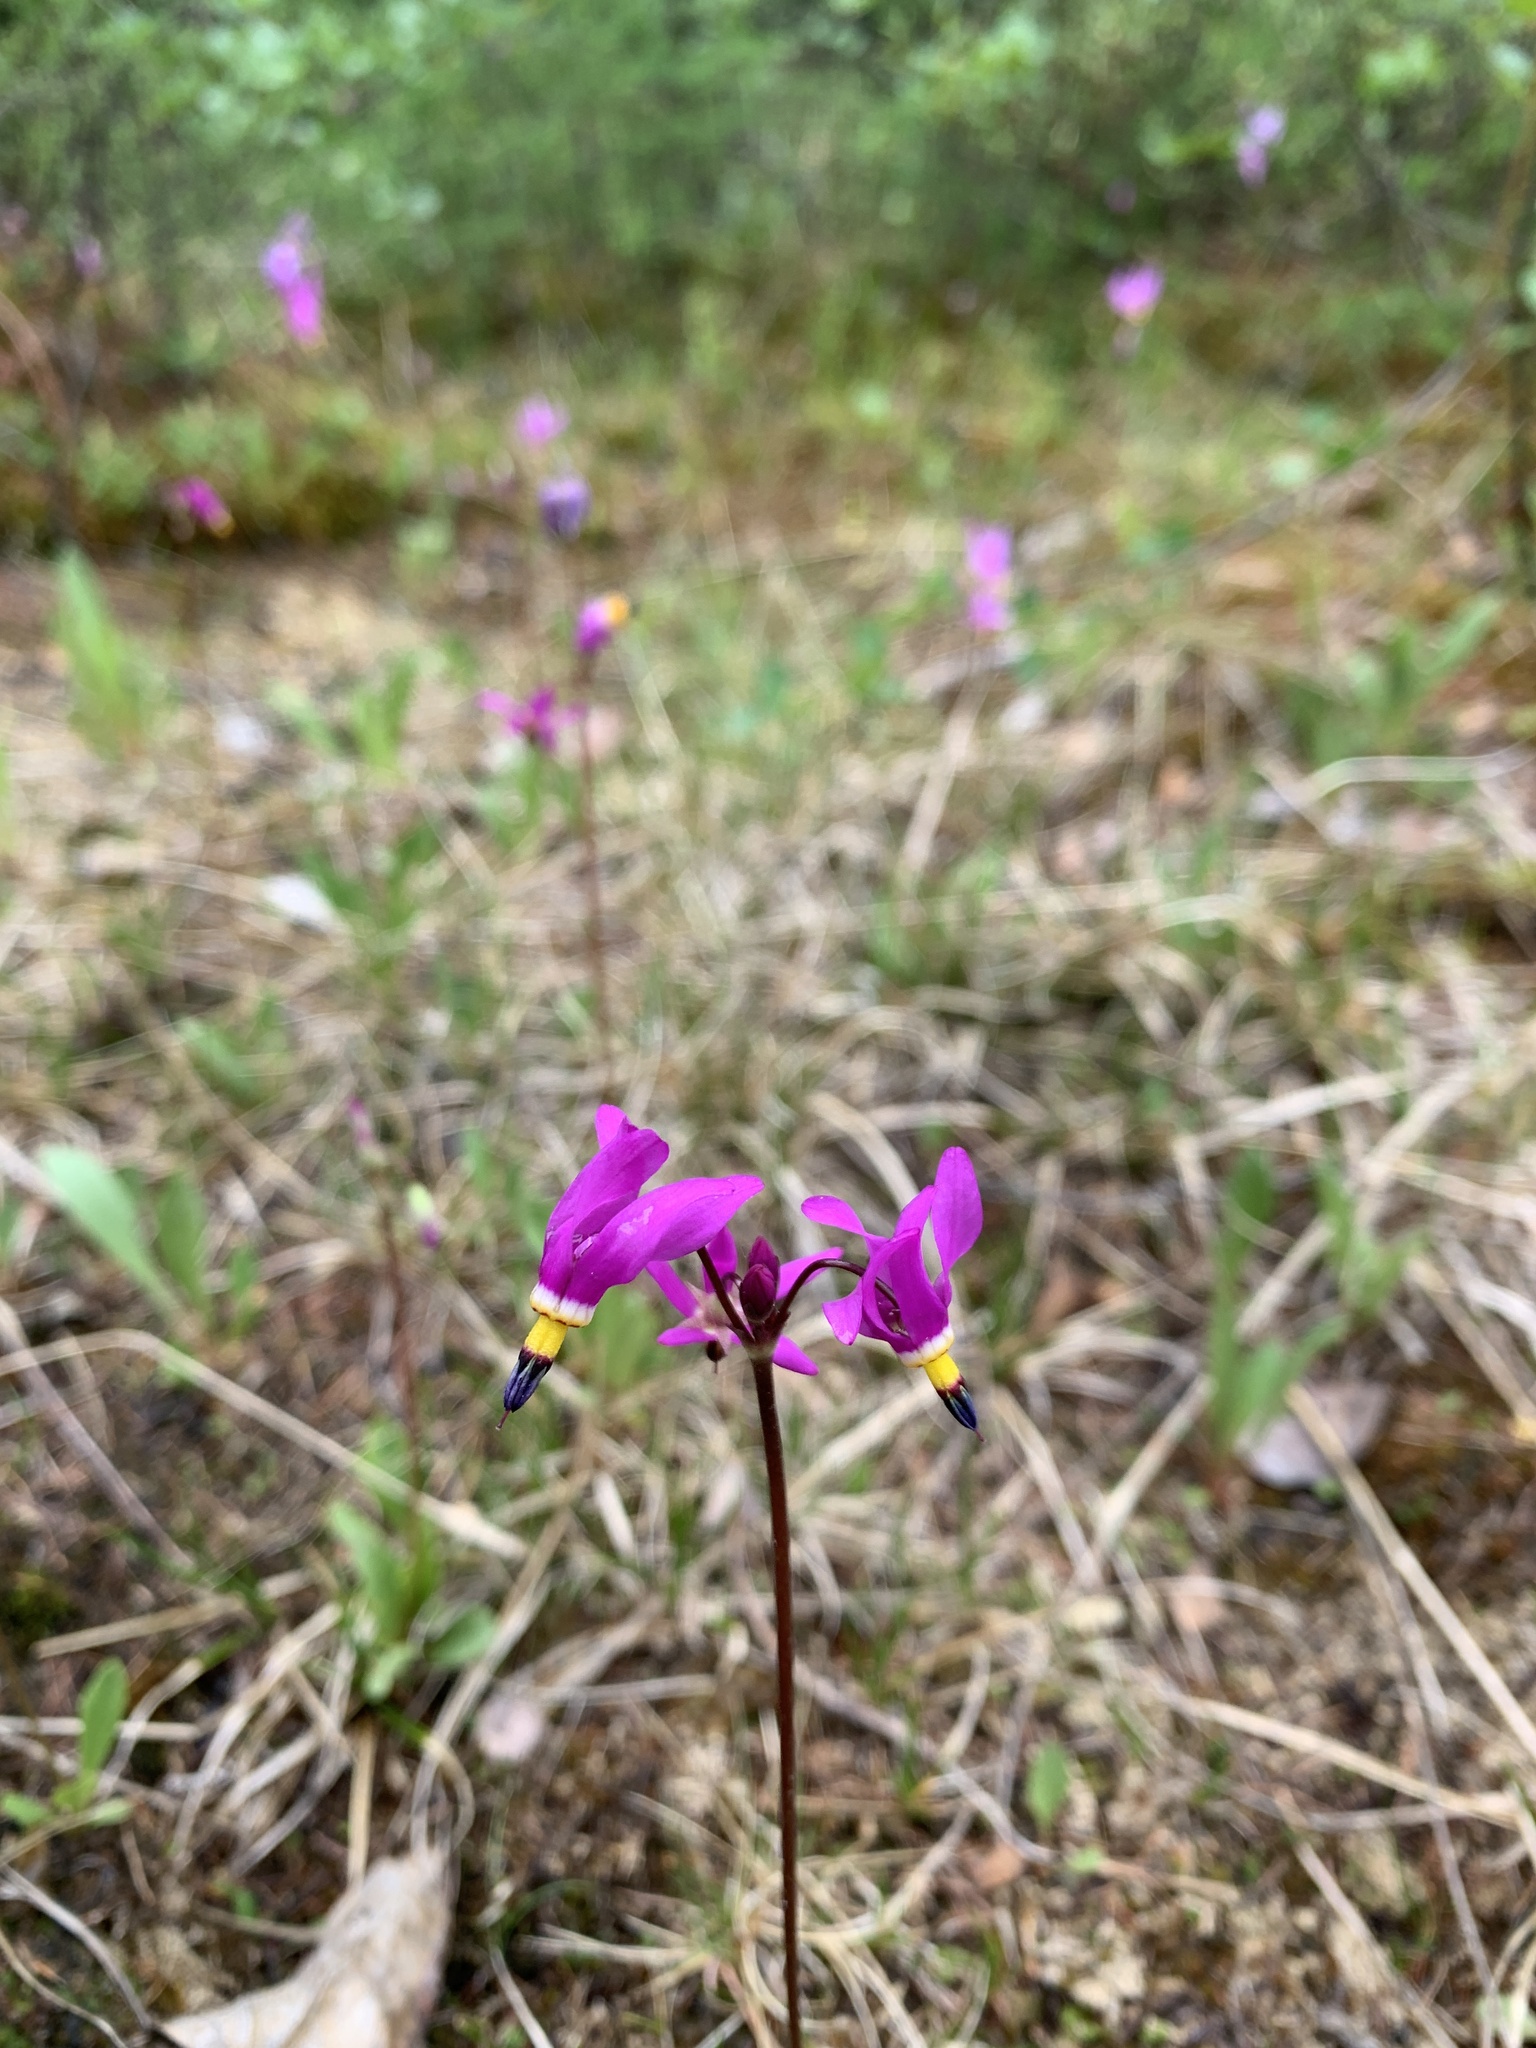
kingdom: Plantae
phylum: Tracheophyta
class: Magnoliopsida
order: Ericales
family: Primulaceae
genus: Dodecatheon
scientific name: Dodecatheon pulchellum
